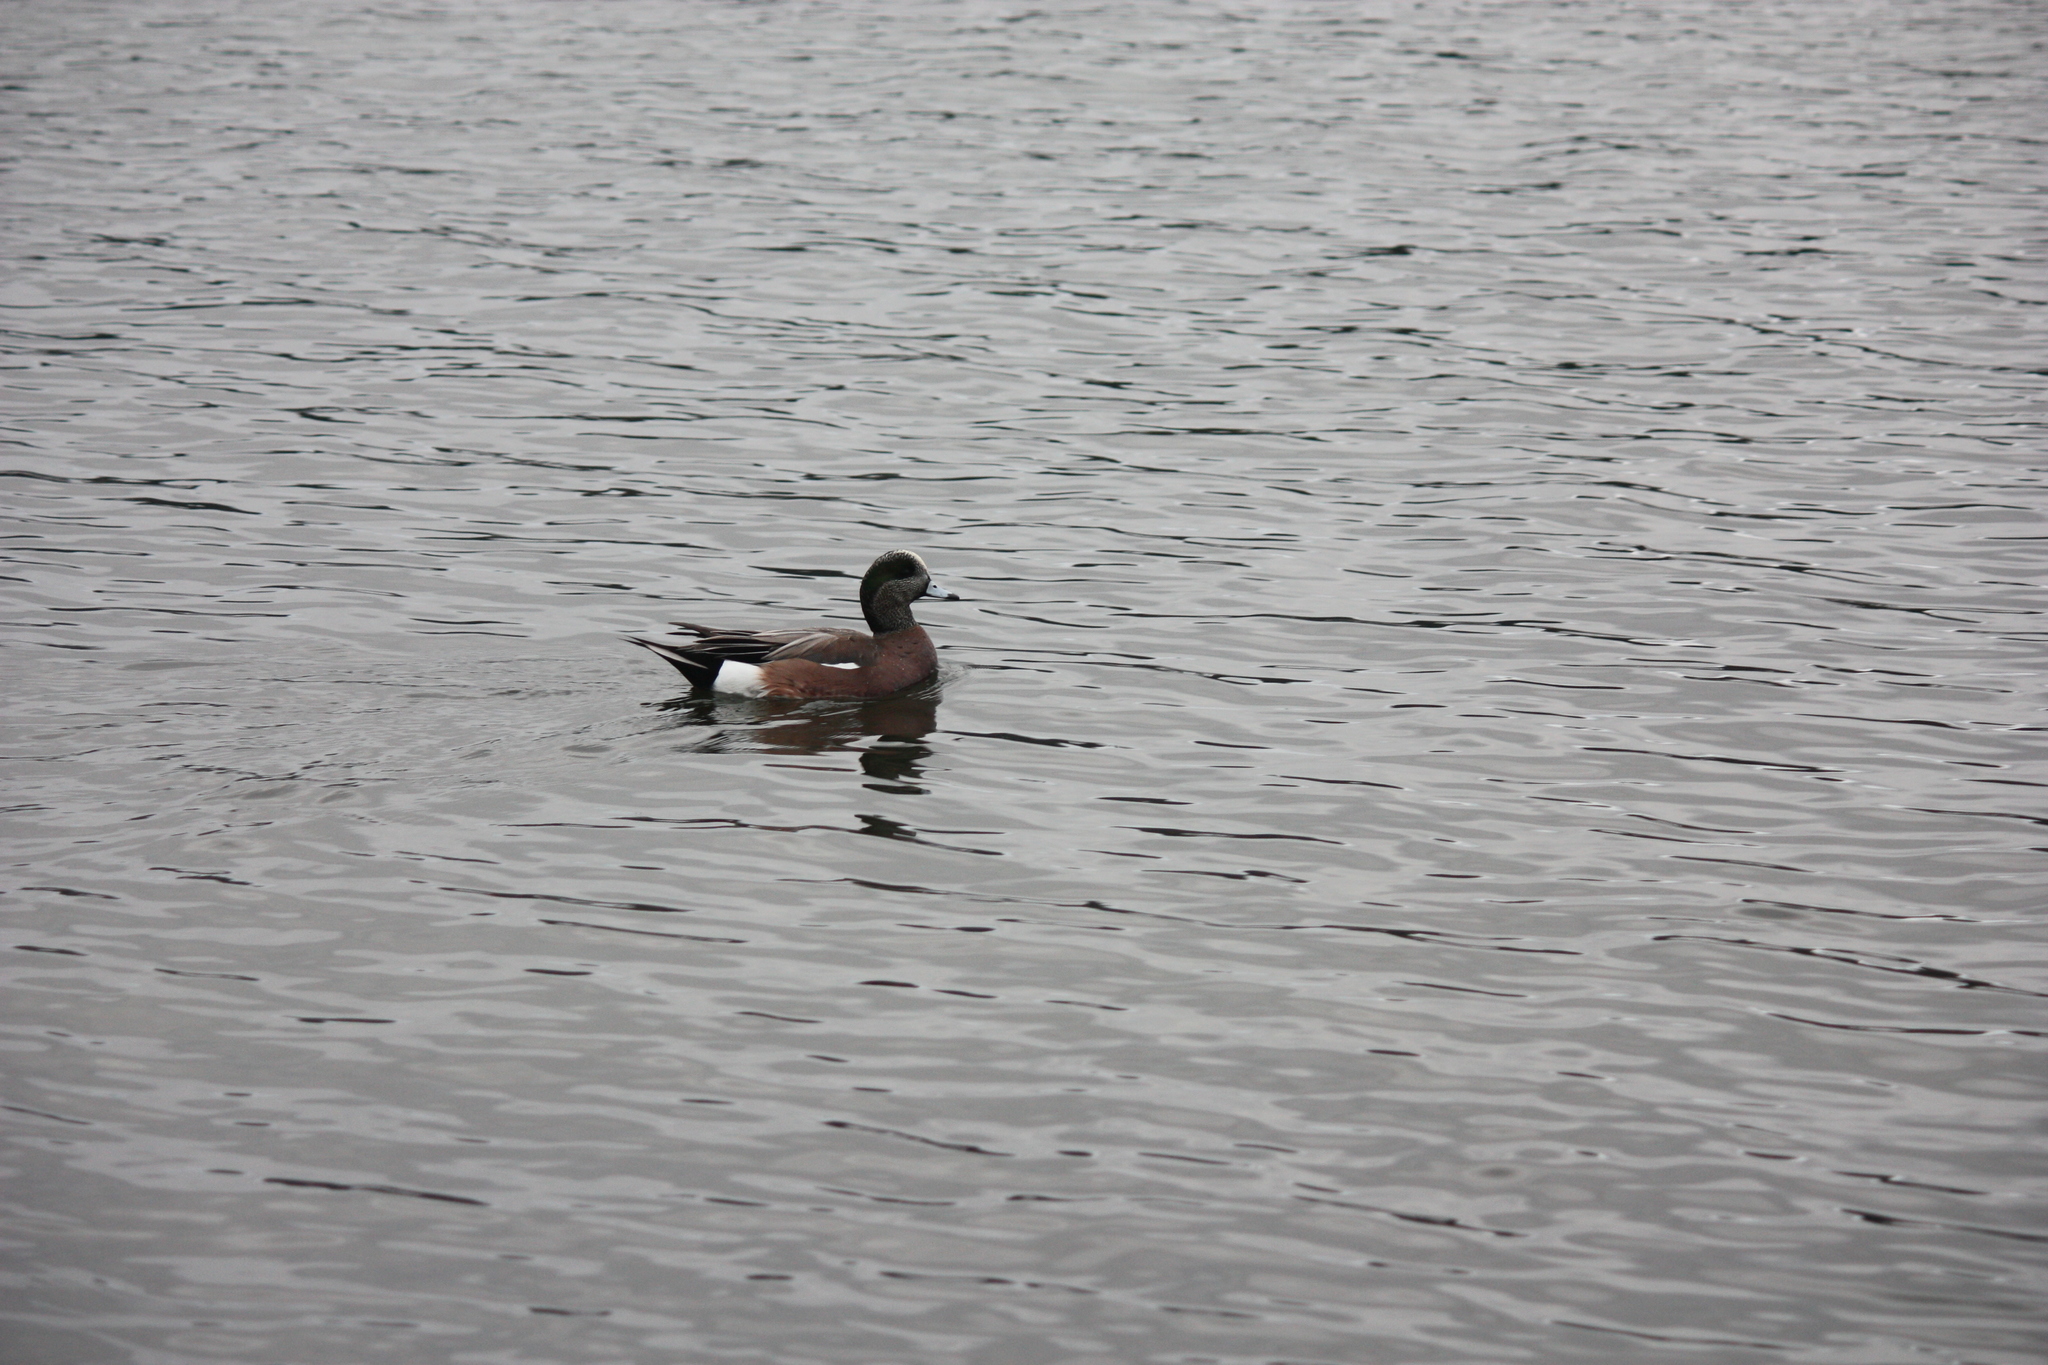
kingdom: Animalia
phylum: Chordata
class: Aves
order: Anseriformes
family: Anatidae
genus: Mareca
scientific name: Mareca americana
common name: American wigeon
